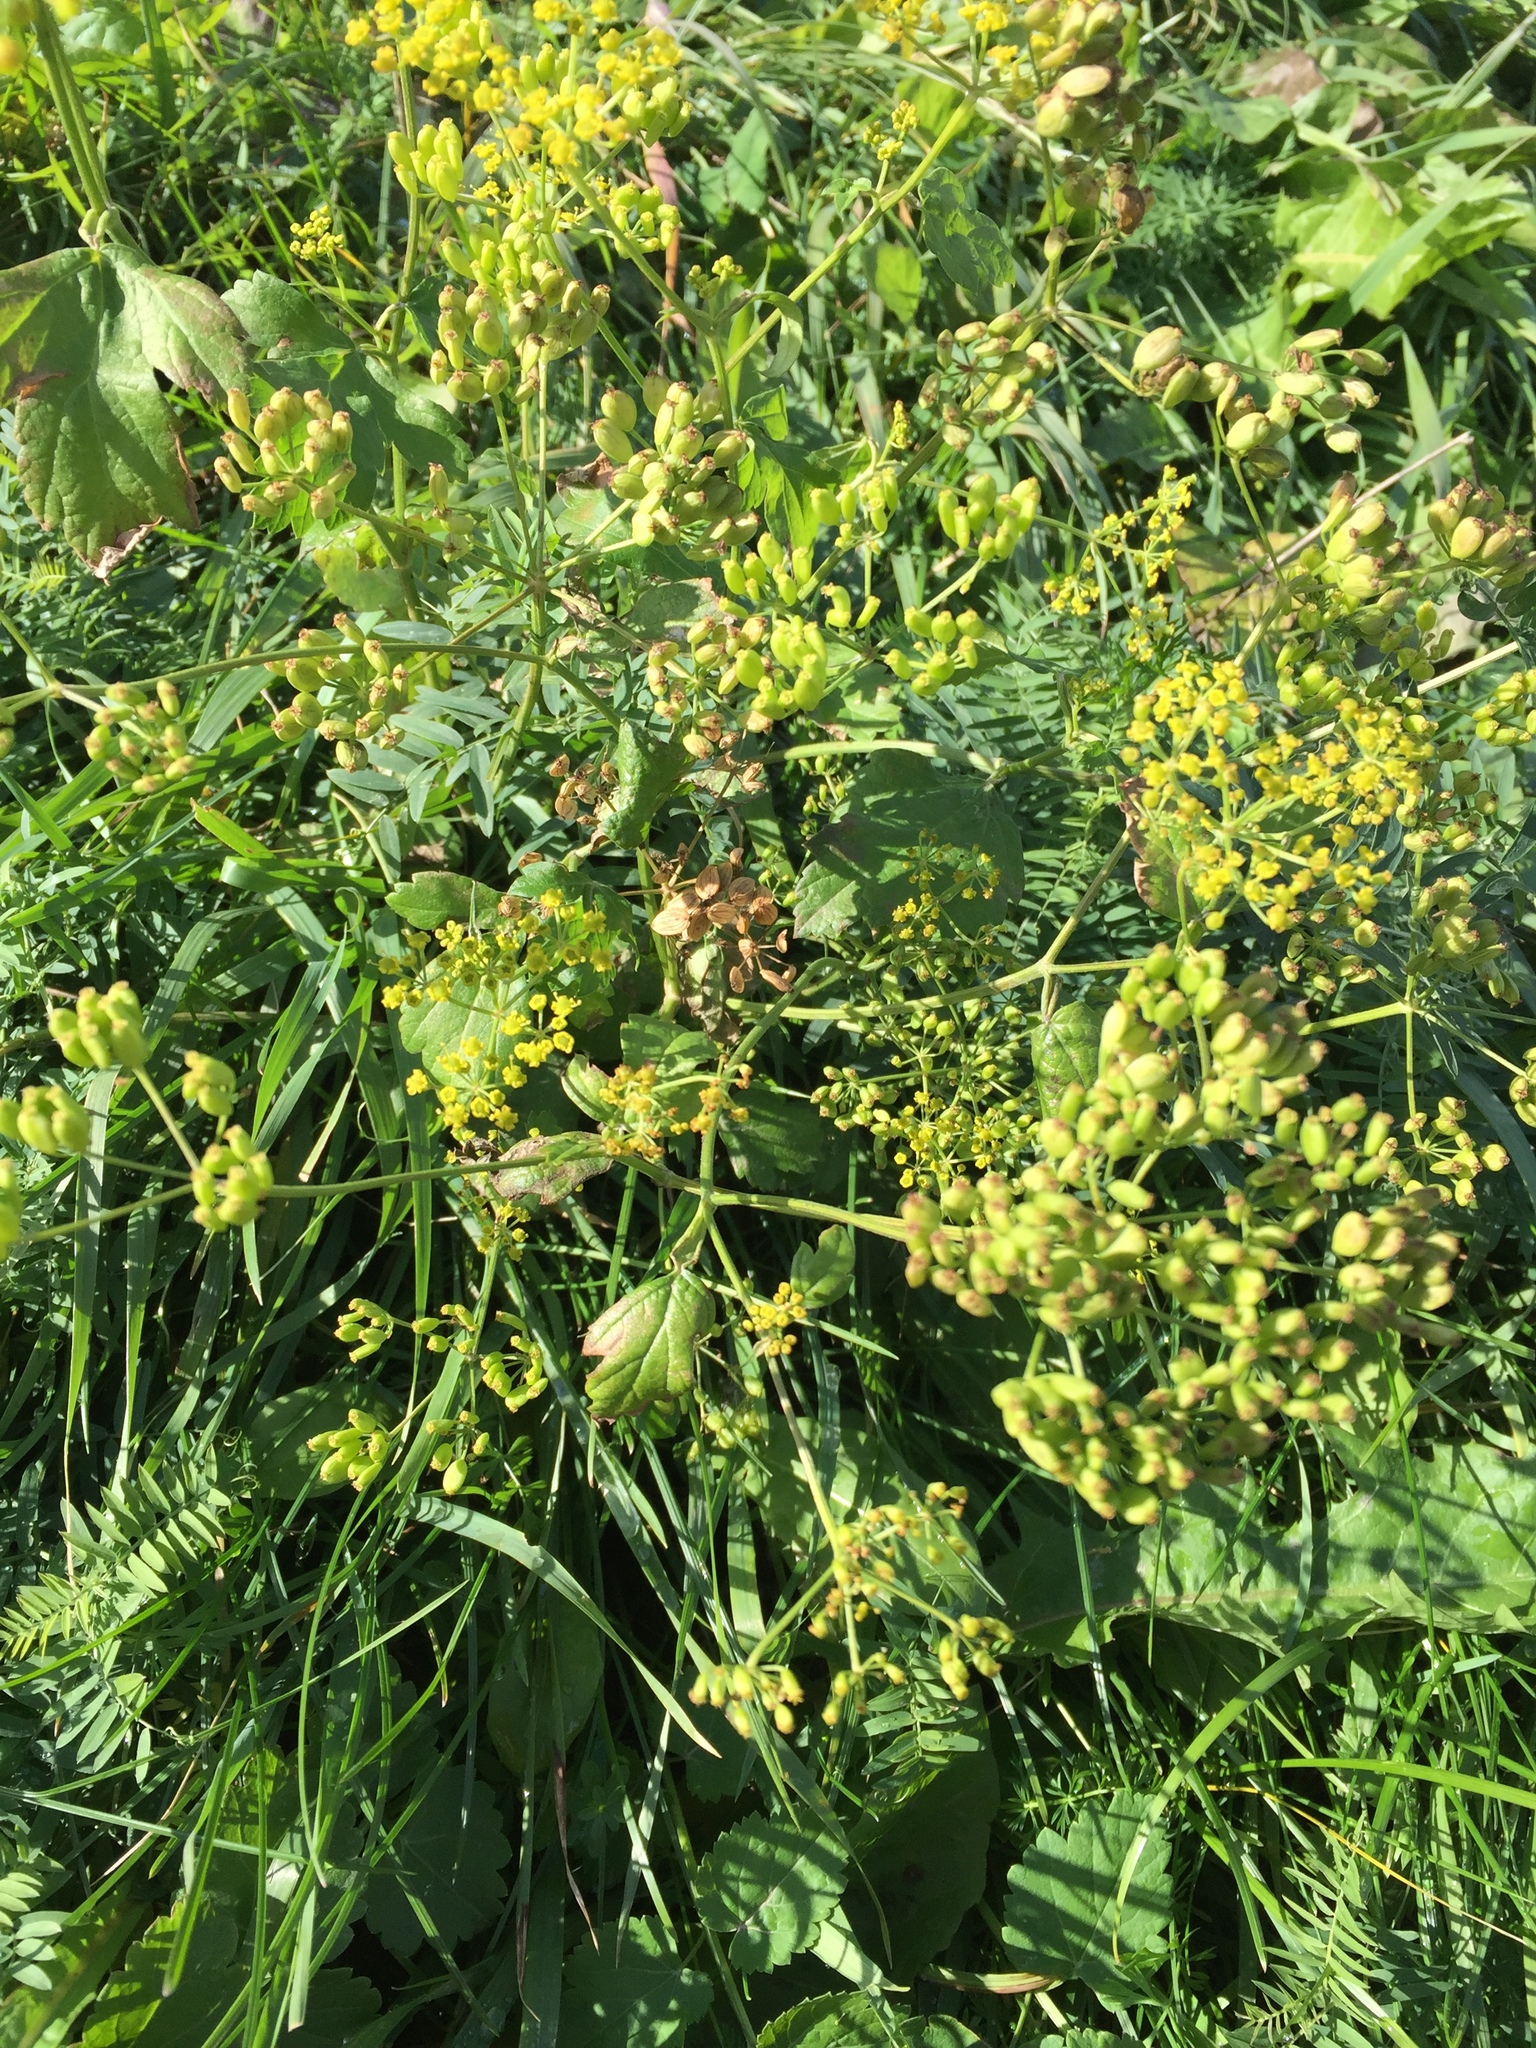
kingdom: Plantae
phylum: Tracheophyta
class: Magnoliopsida
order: Apiales
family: Apiaceae
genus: Pastinaca
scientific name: Pastinaca sativa
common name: Wild parsnip
